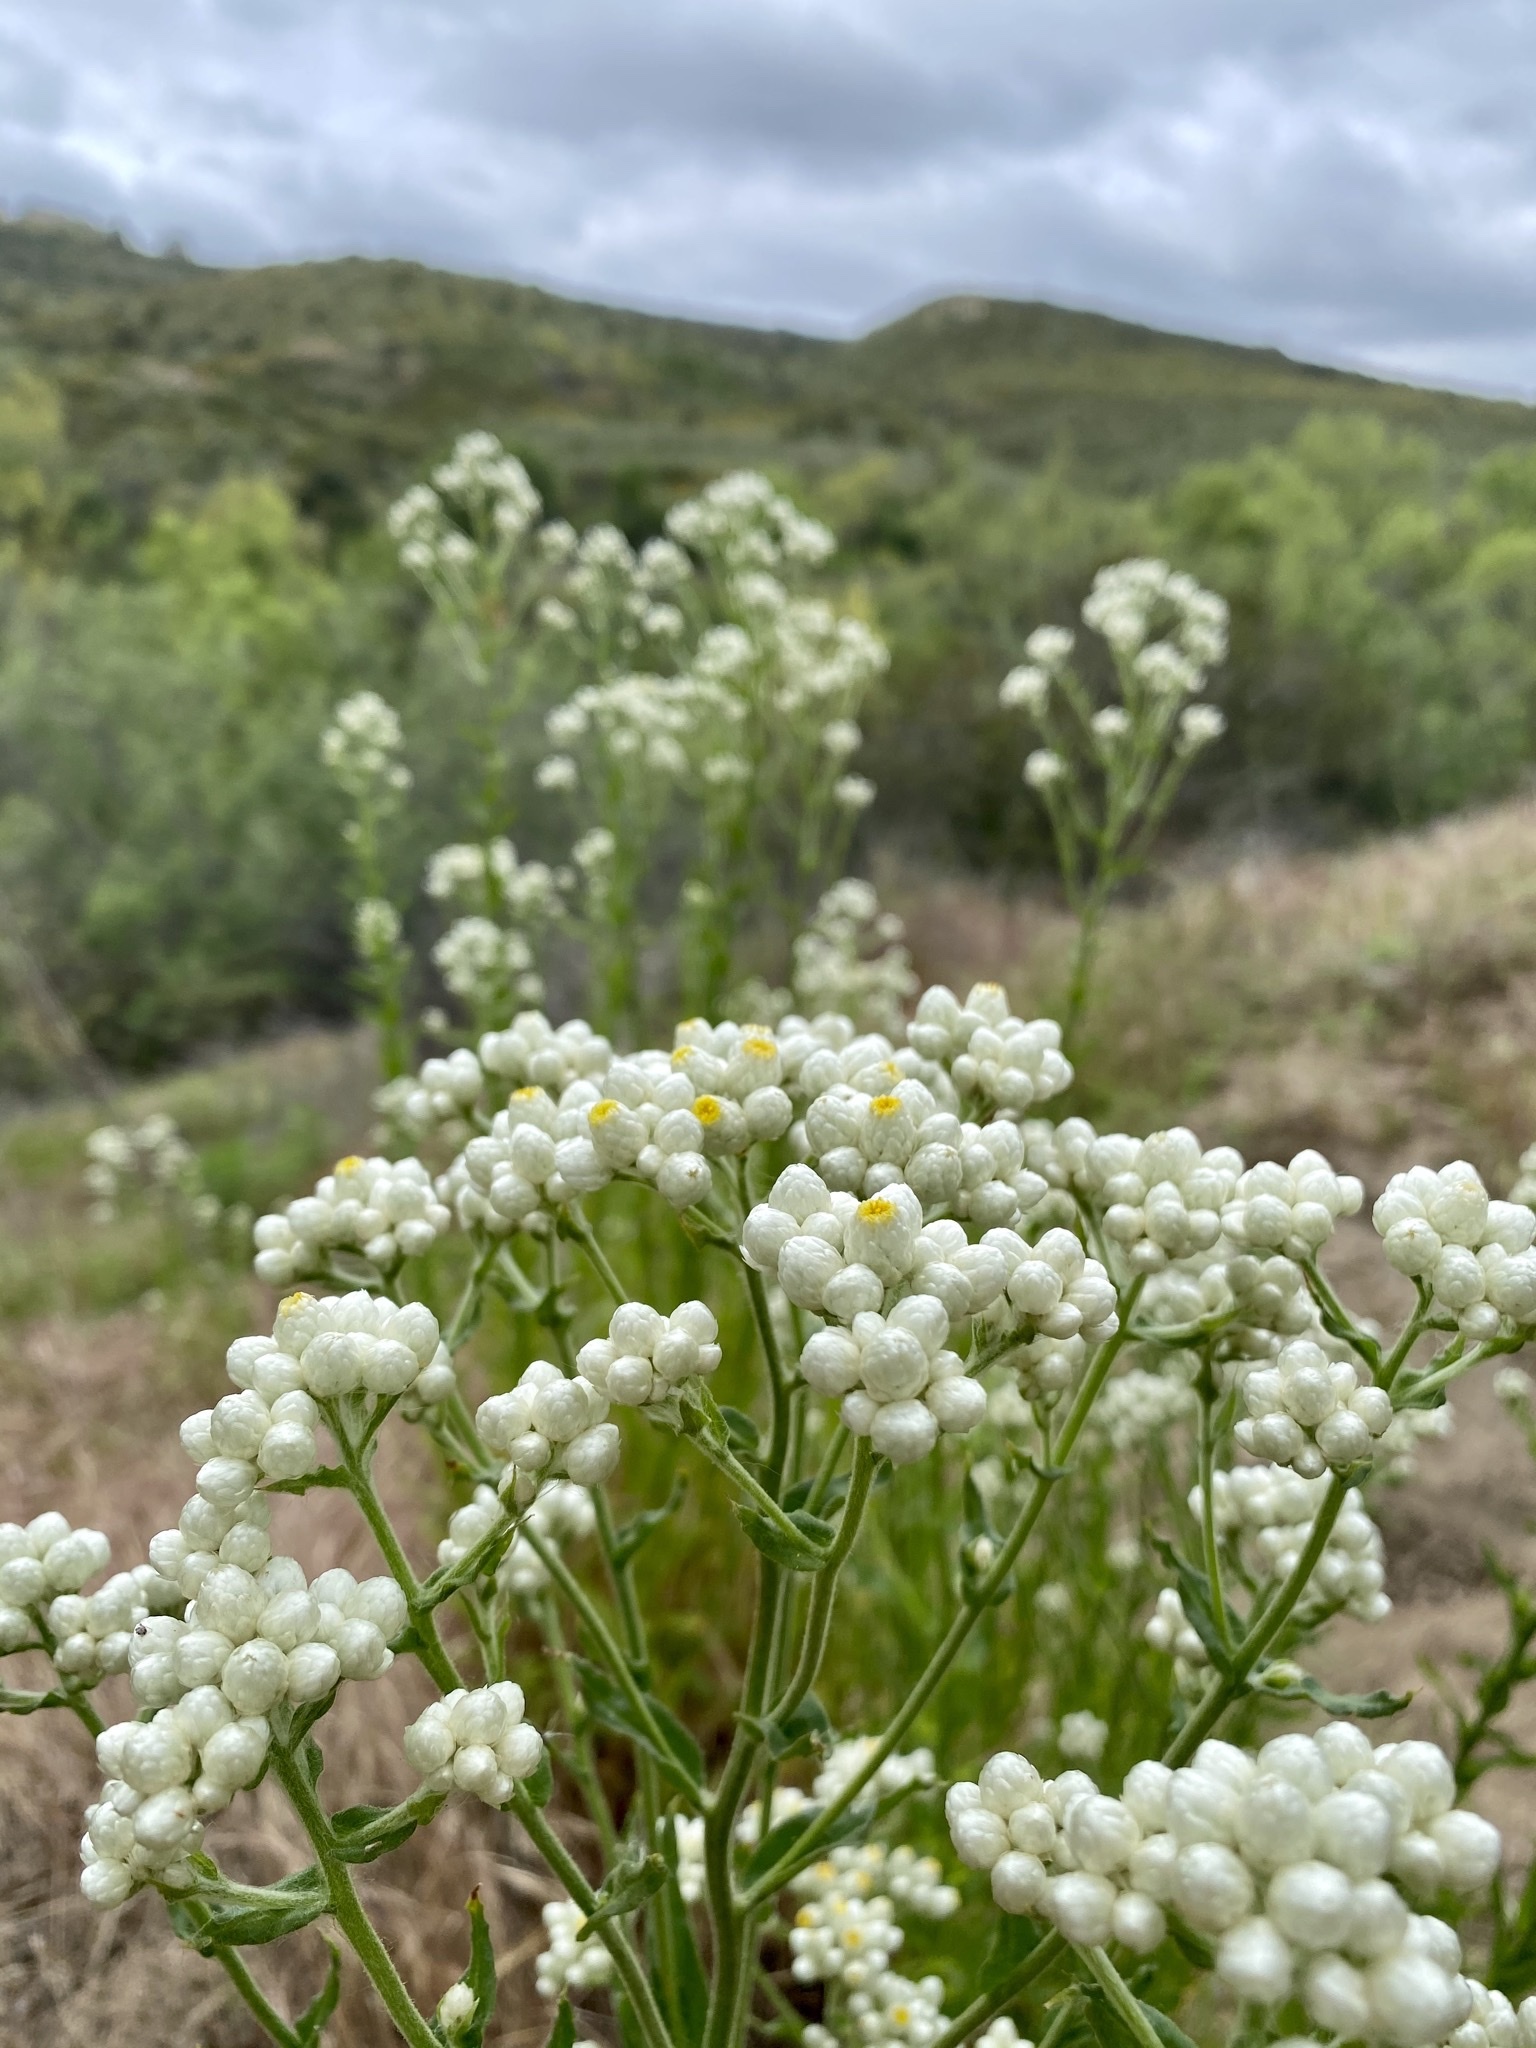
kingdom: Plantae
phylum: Tracheophyta
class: Magnoliopsida
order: Asterales
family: Asteraceae
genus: Pseudognaphalium
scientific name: Pseudognaphalium californicum
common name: California rabbit-tobacco
